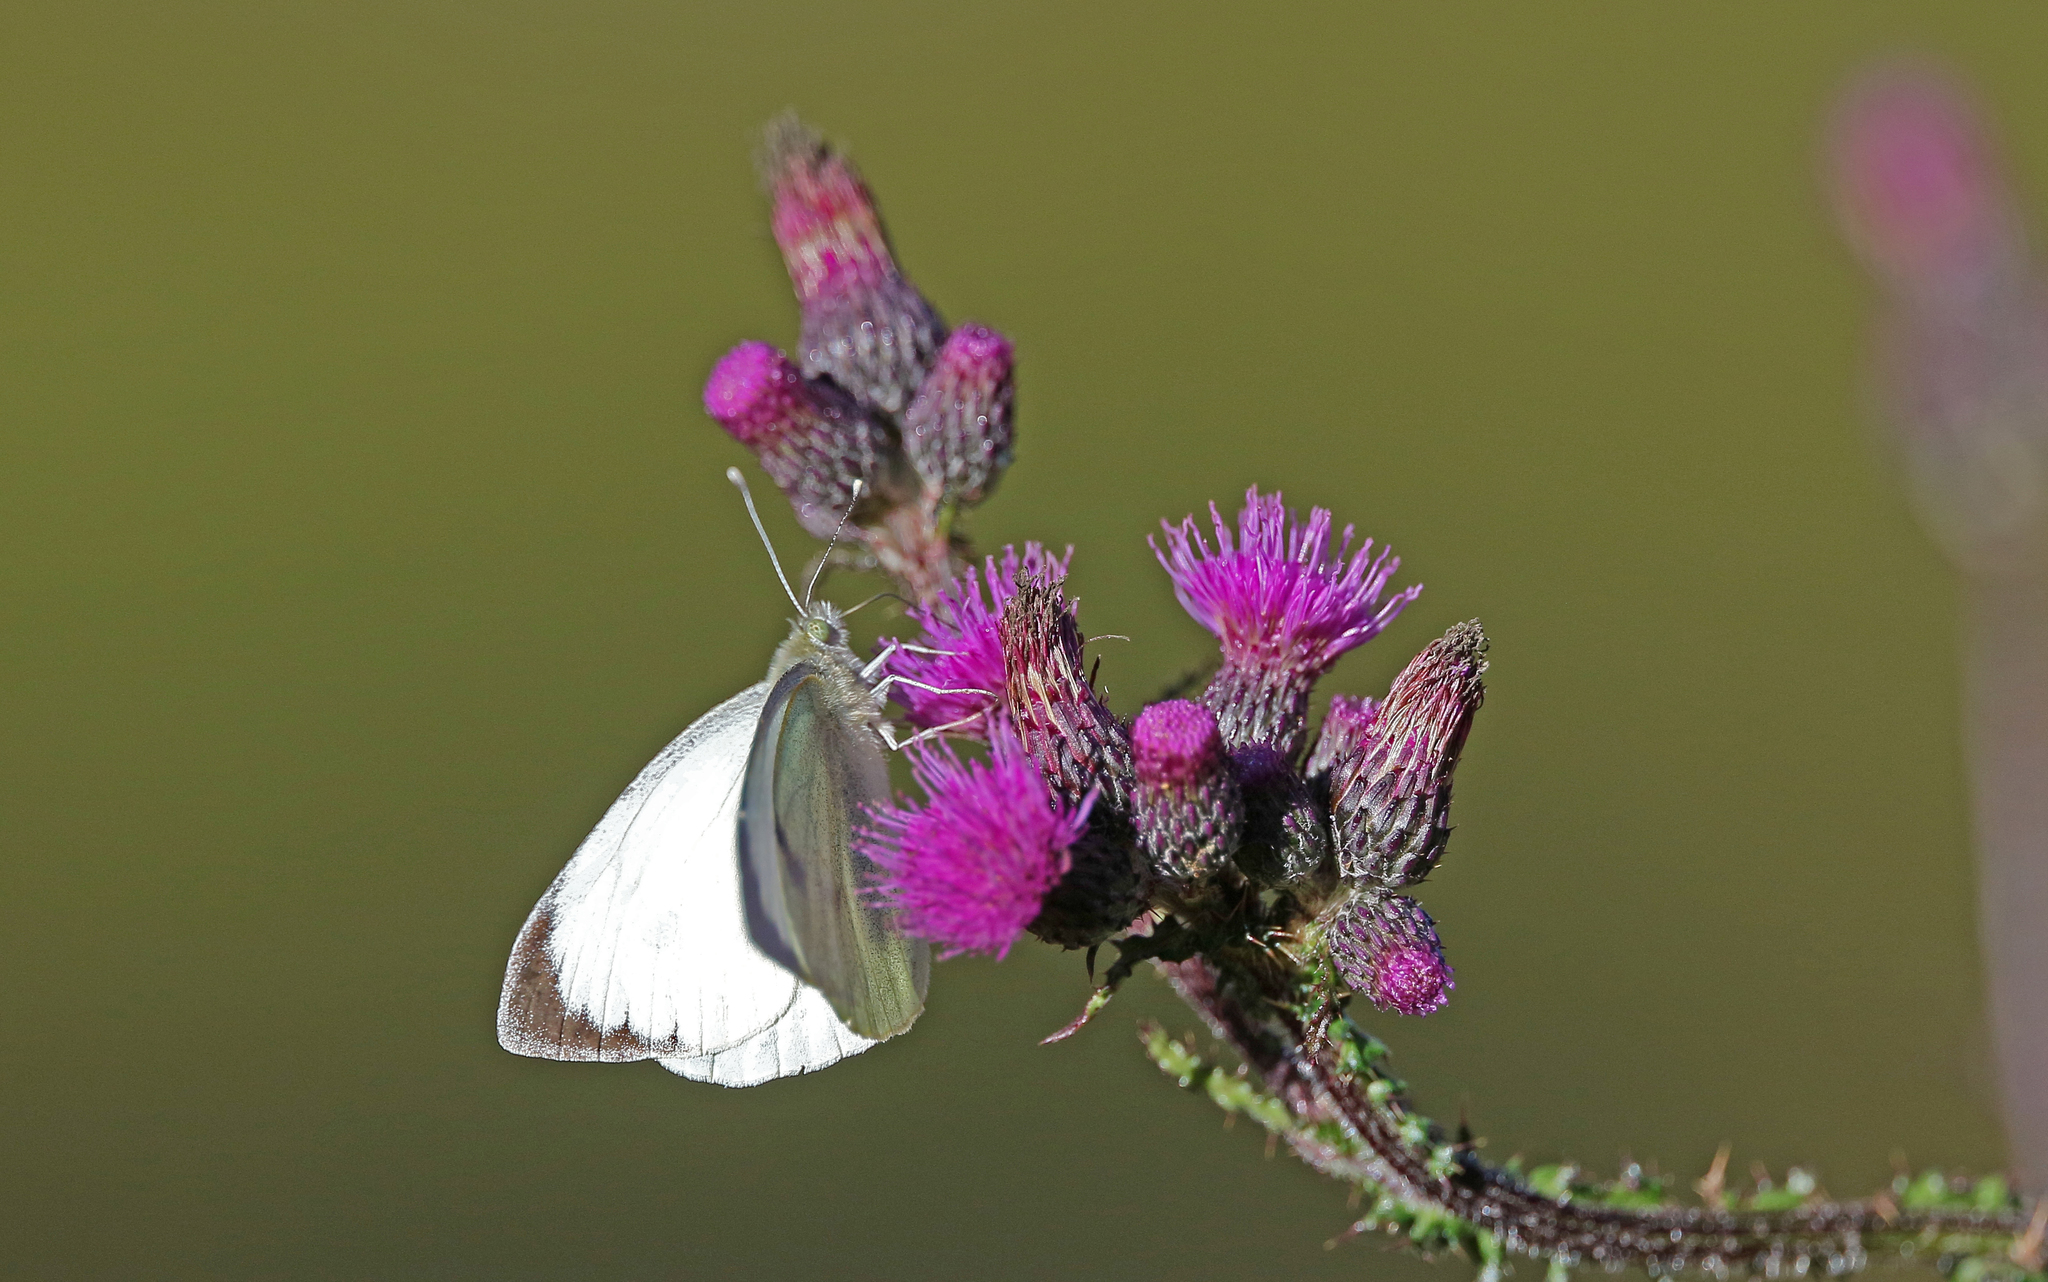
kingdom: Animalia
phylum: Arthropoda
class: Insecta
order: Lepidoptera
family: Pieridae
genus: Pieris
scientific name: Pieris brassicae
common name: Large white
